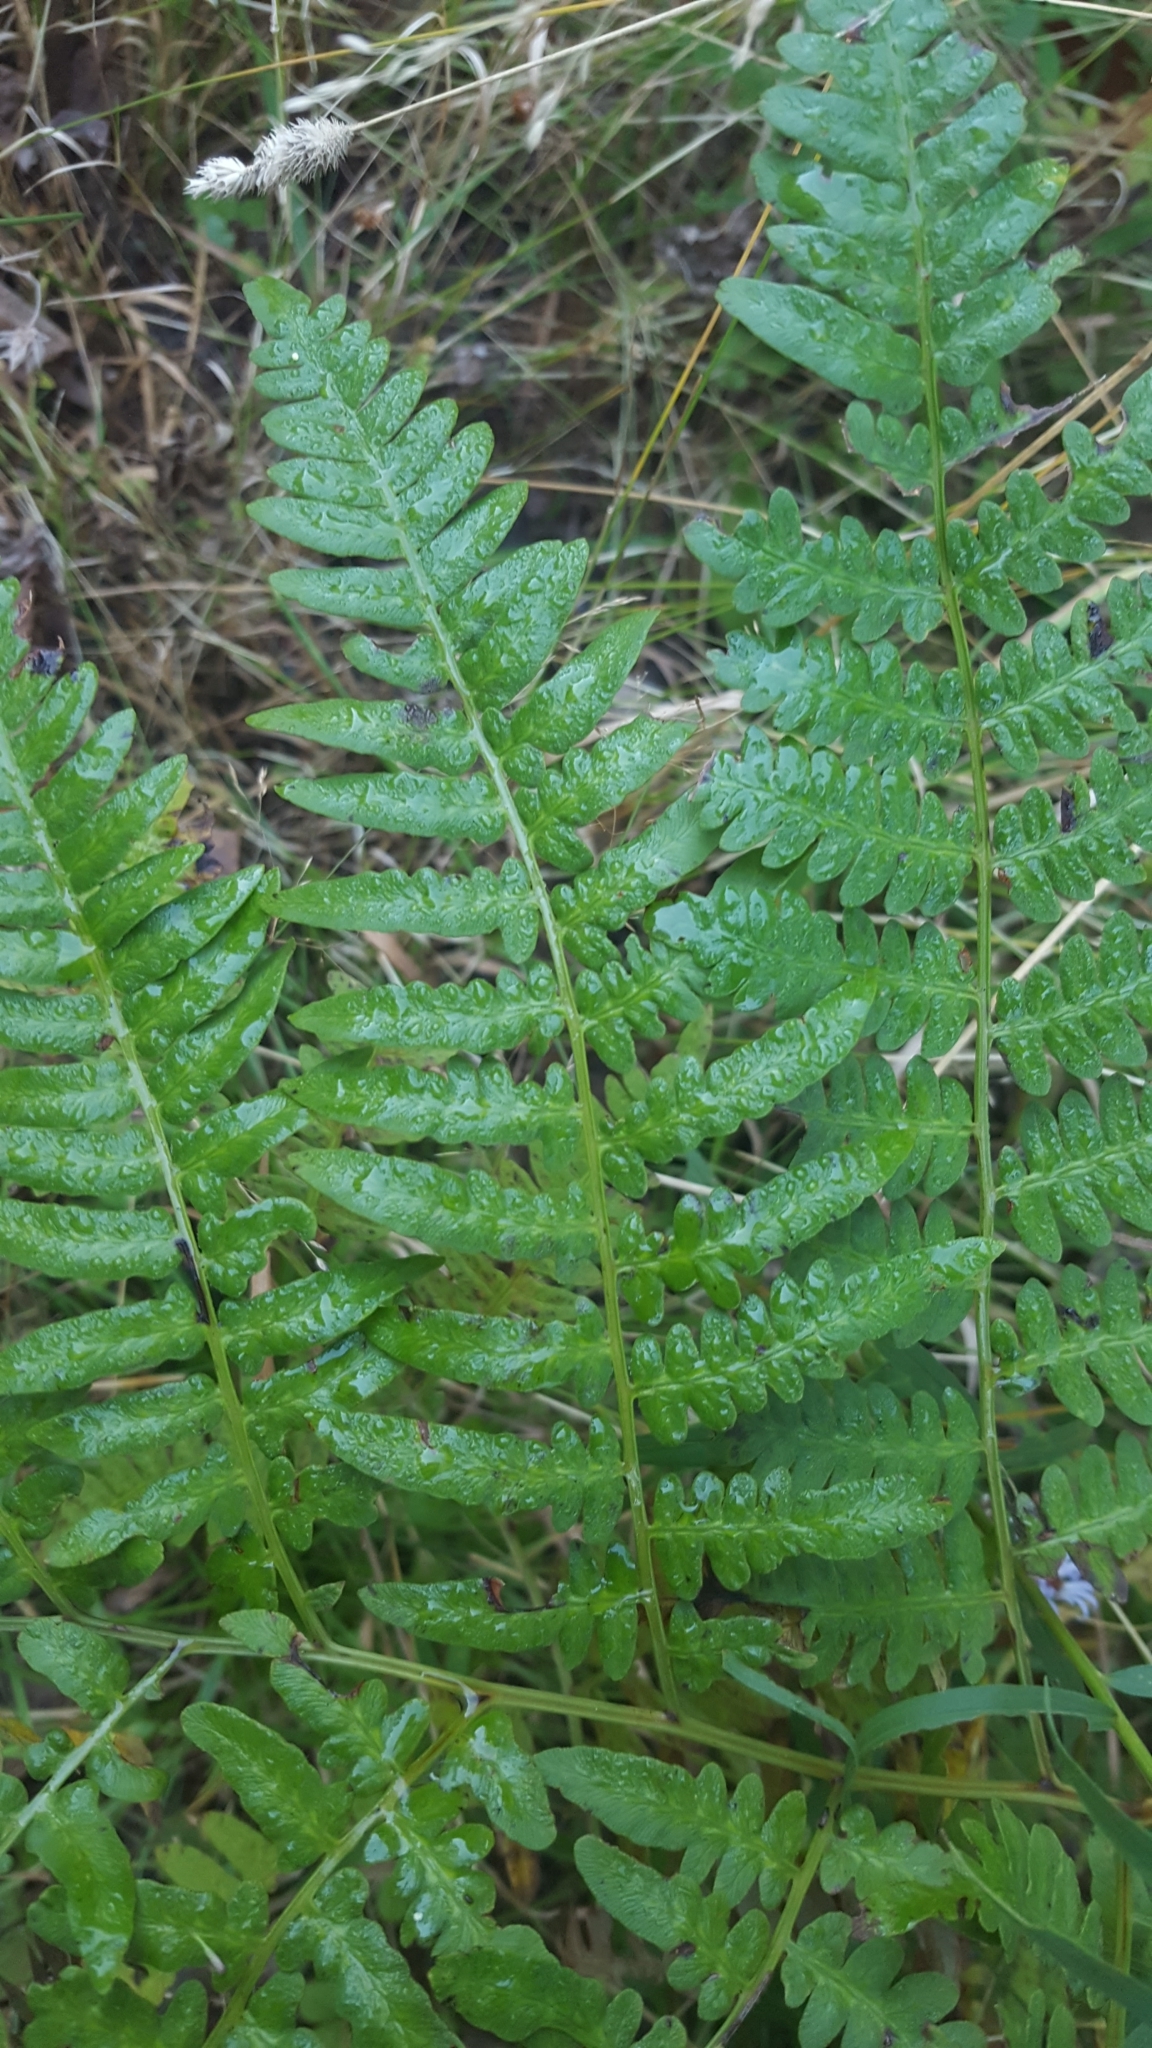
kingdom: Plantae
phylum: Tracheophyta
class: Polypodiopsida
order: Polypodiales
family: Dennstaedtiaceae
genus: Pteridium
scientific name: Pteridium aquilinum
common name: Bracken
